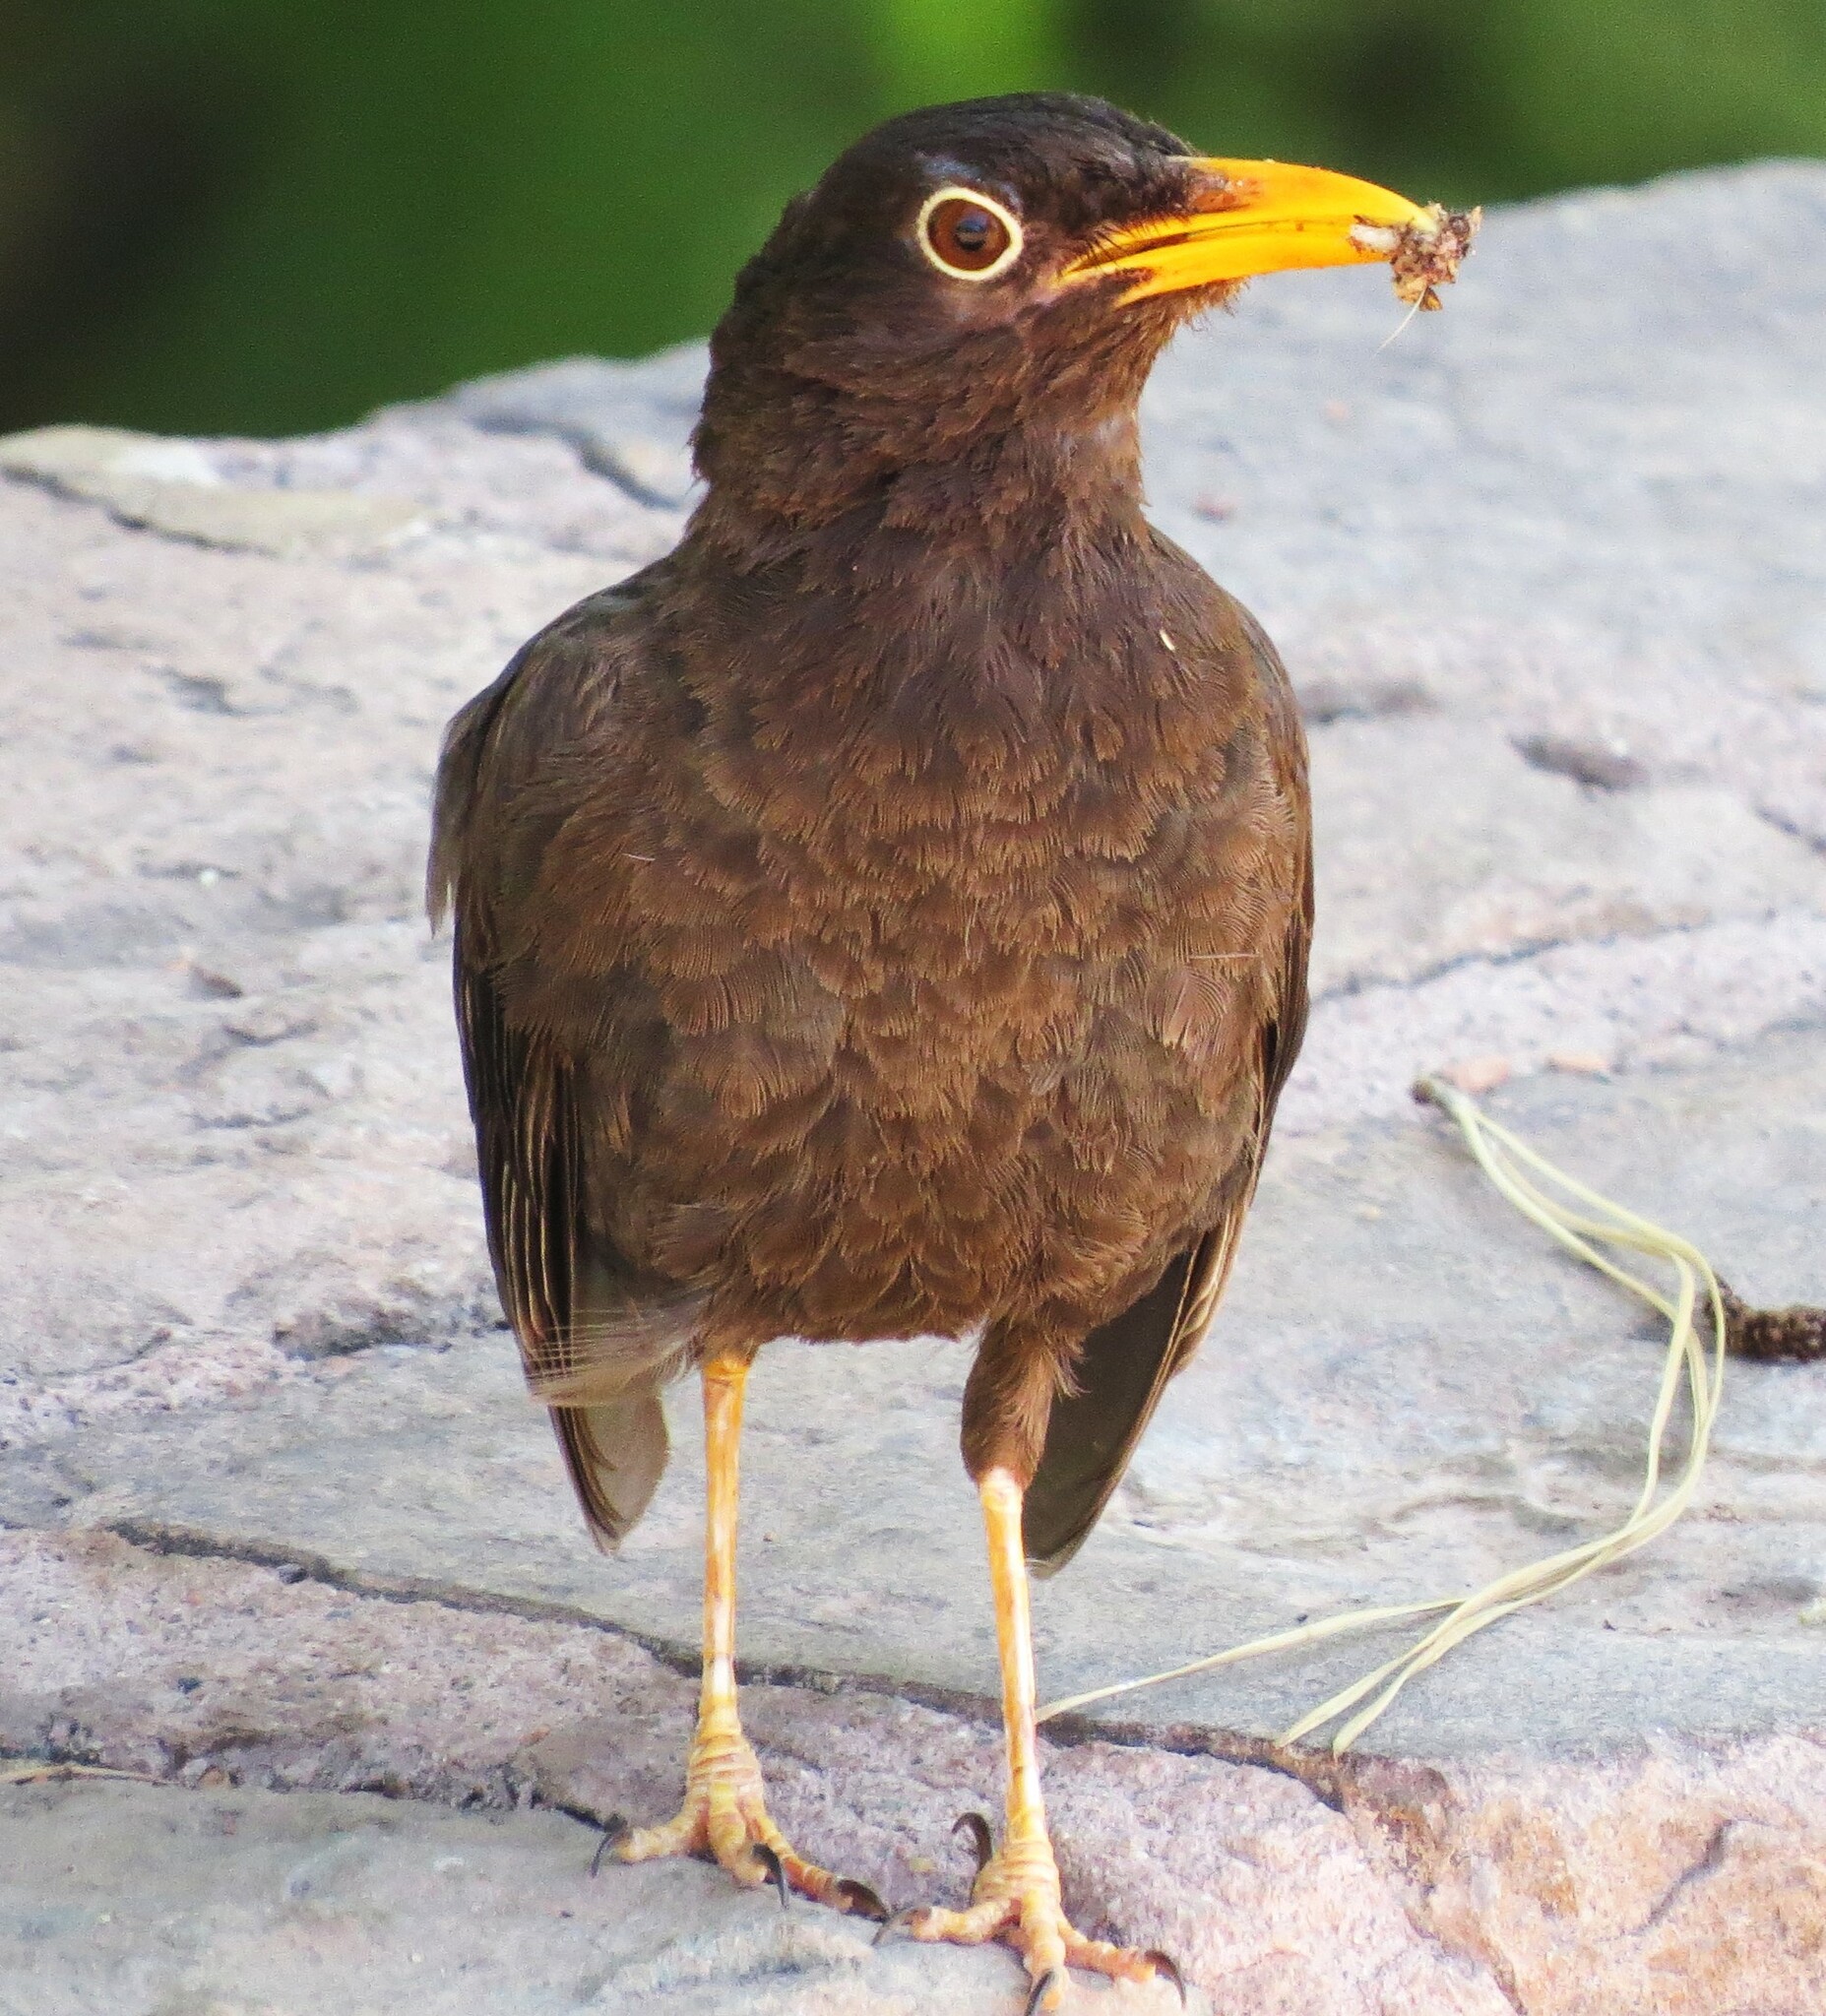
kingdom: Animalia
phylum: Chordata
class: Aves
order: Passeriformes
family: Turdidae
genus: Turdus
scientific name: Turdus chiguanco
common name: Chiguanco thrush
